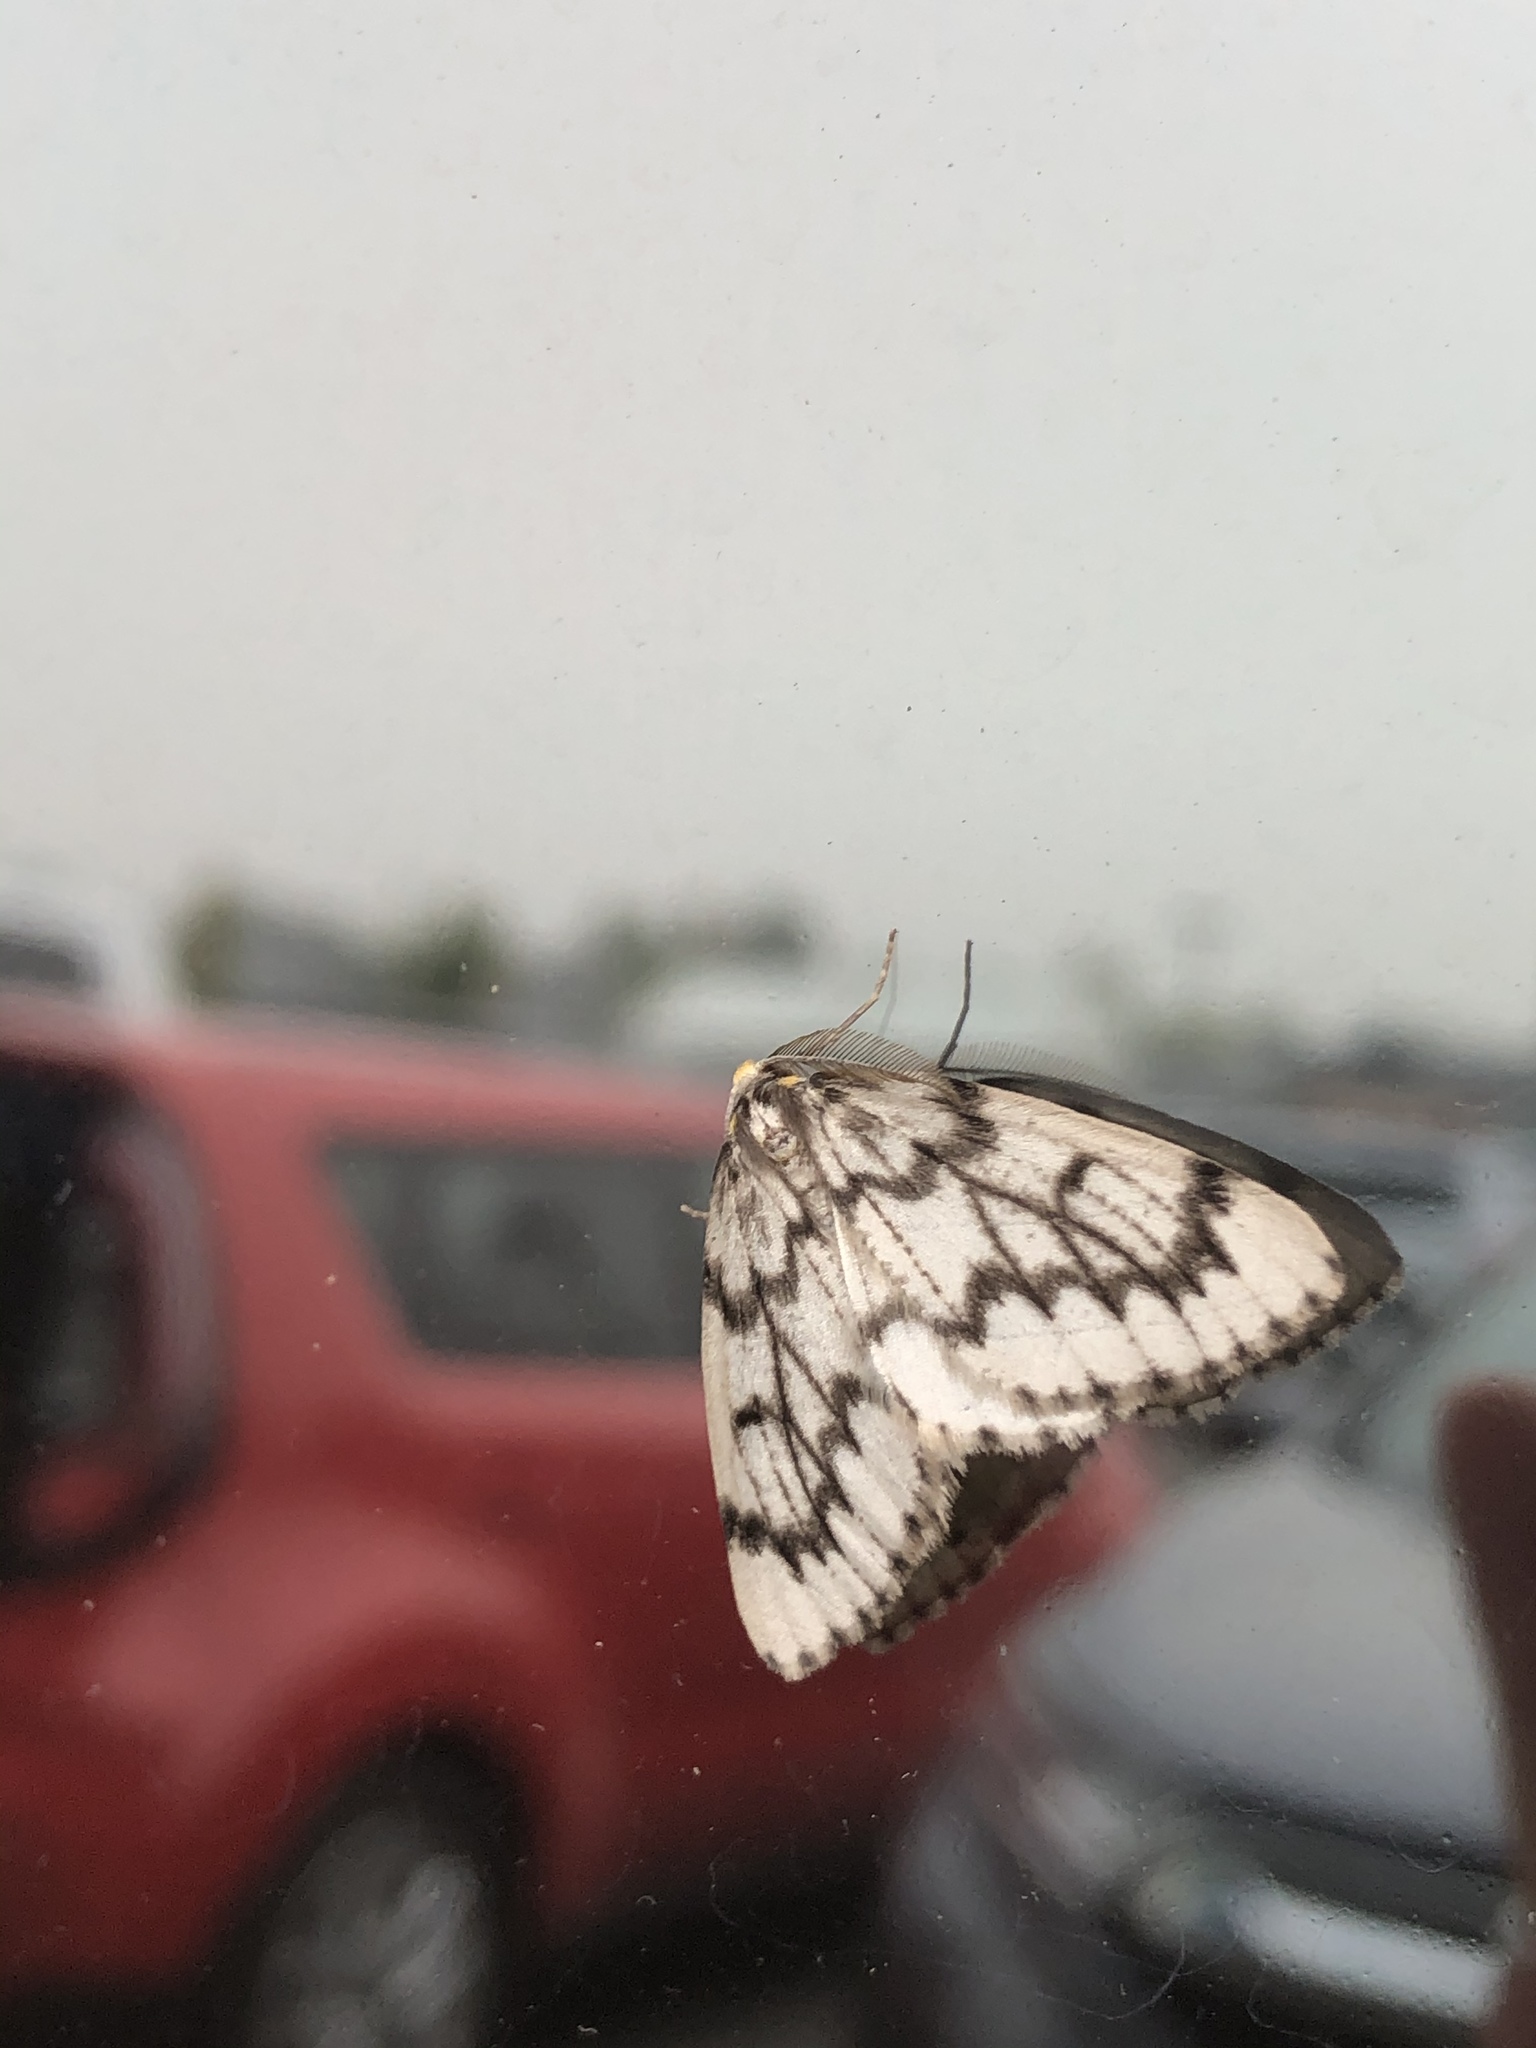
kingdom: Animalia
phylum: Arthropoda
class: Insecta
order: Lepidoptera
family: Geometridae
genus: Nepytia
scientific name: Nepytia phantasmaria
